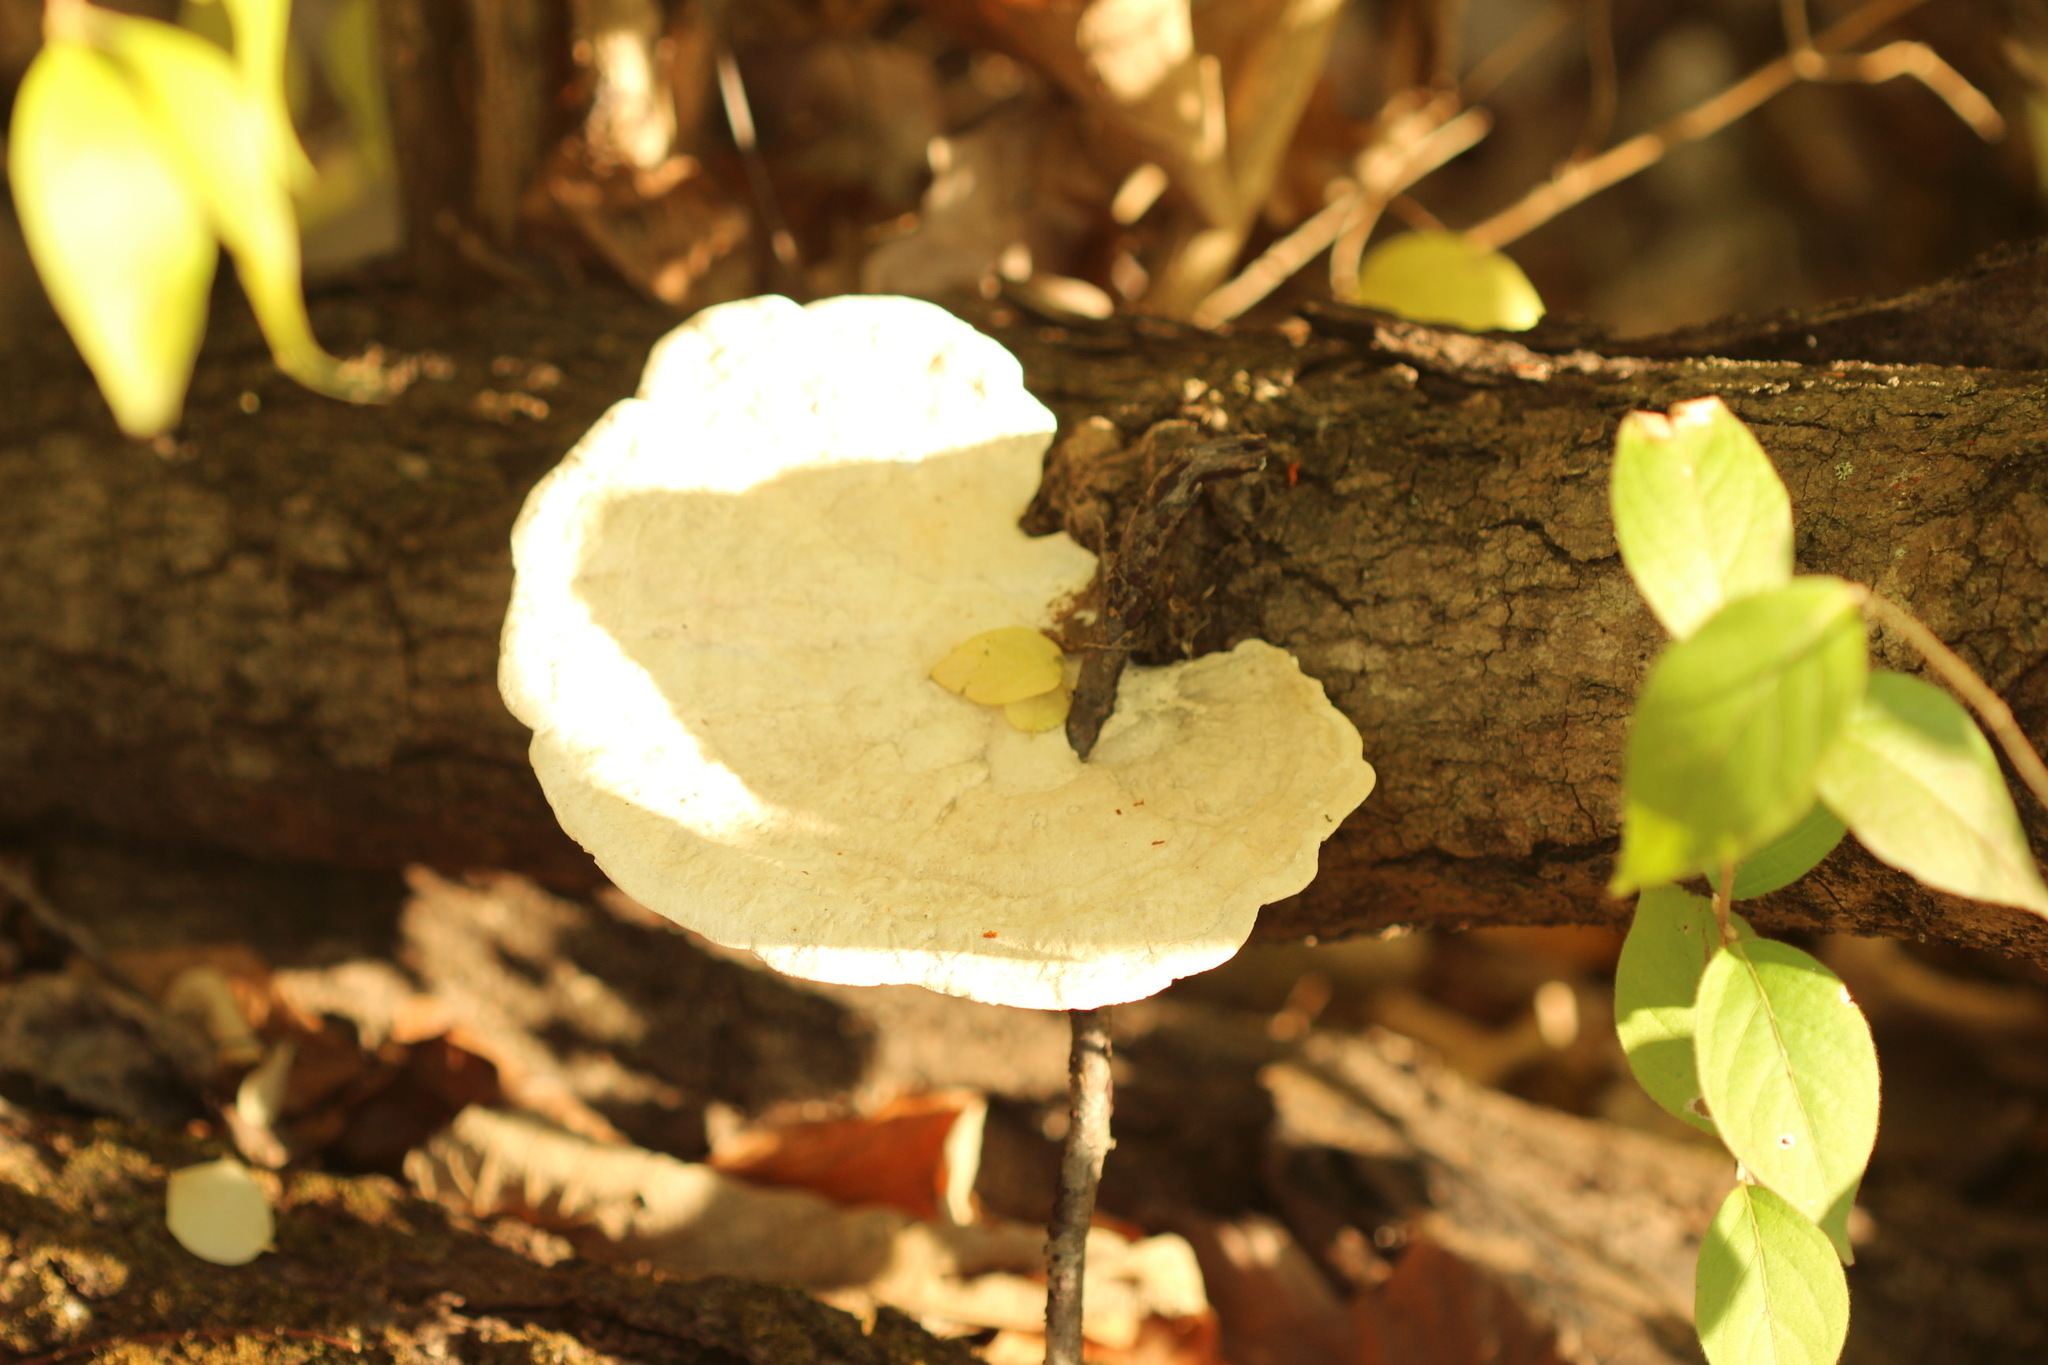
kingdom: Fungi
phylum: Basidiomycota
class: Agaricomycetes
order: Polyporales
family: Polyporaceae
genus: Trametes
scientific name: Trametes
